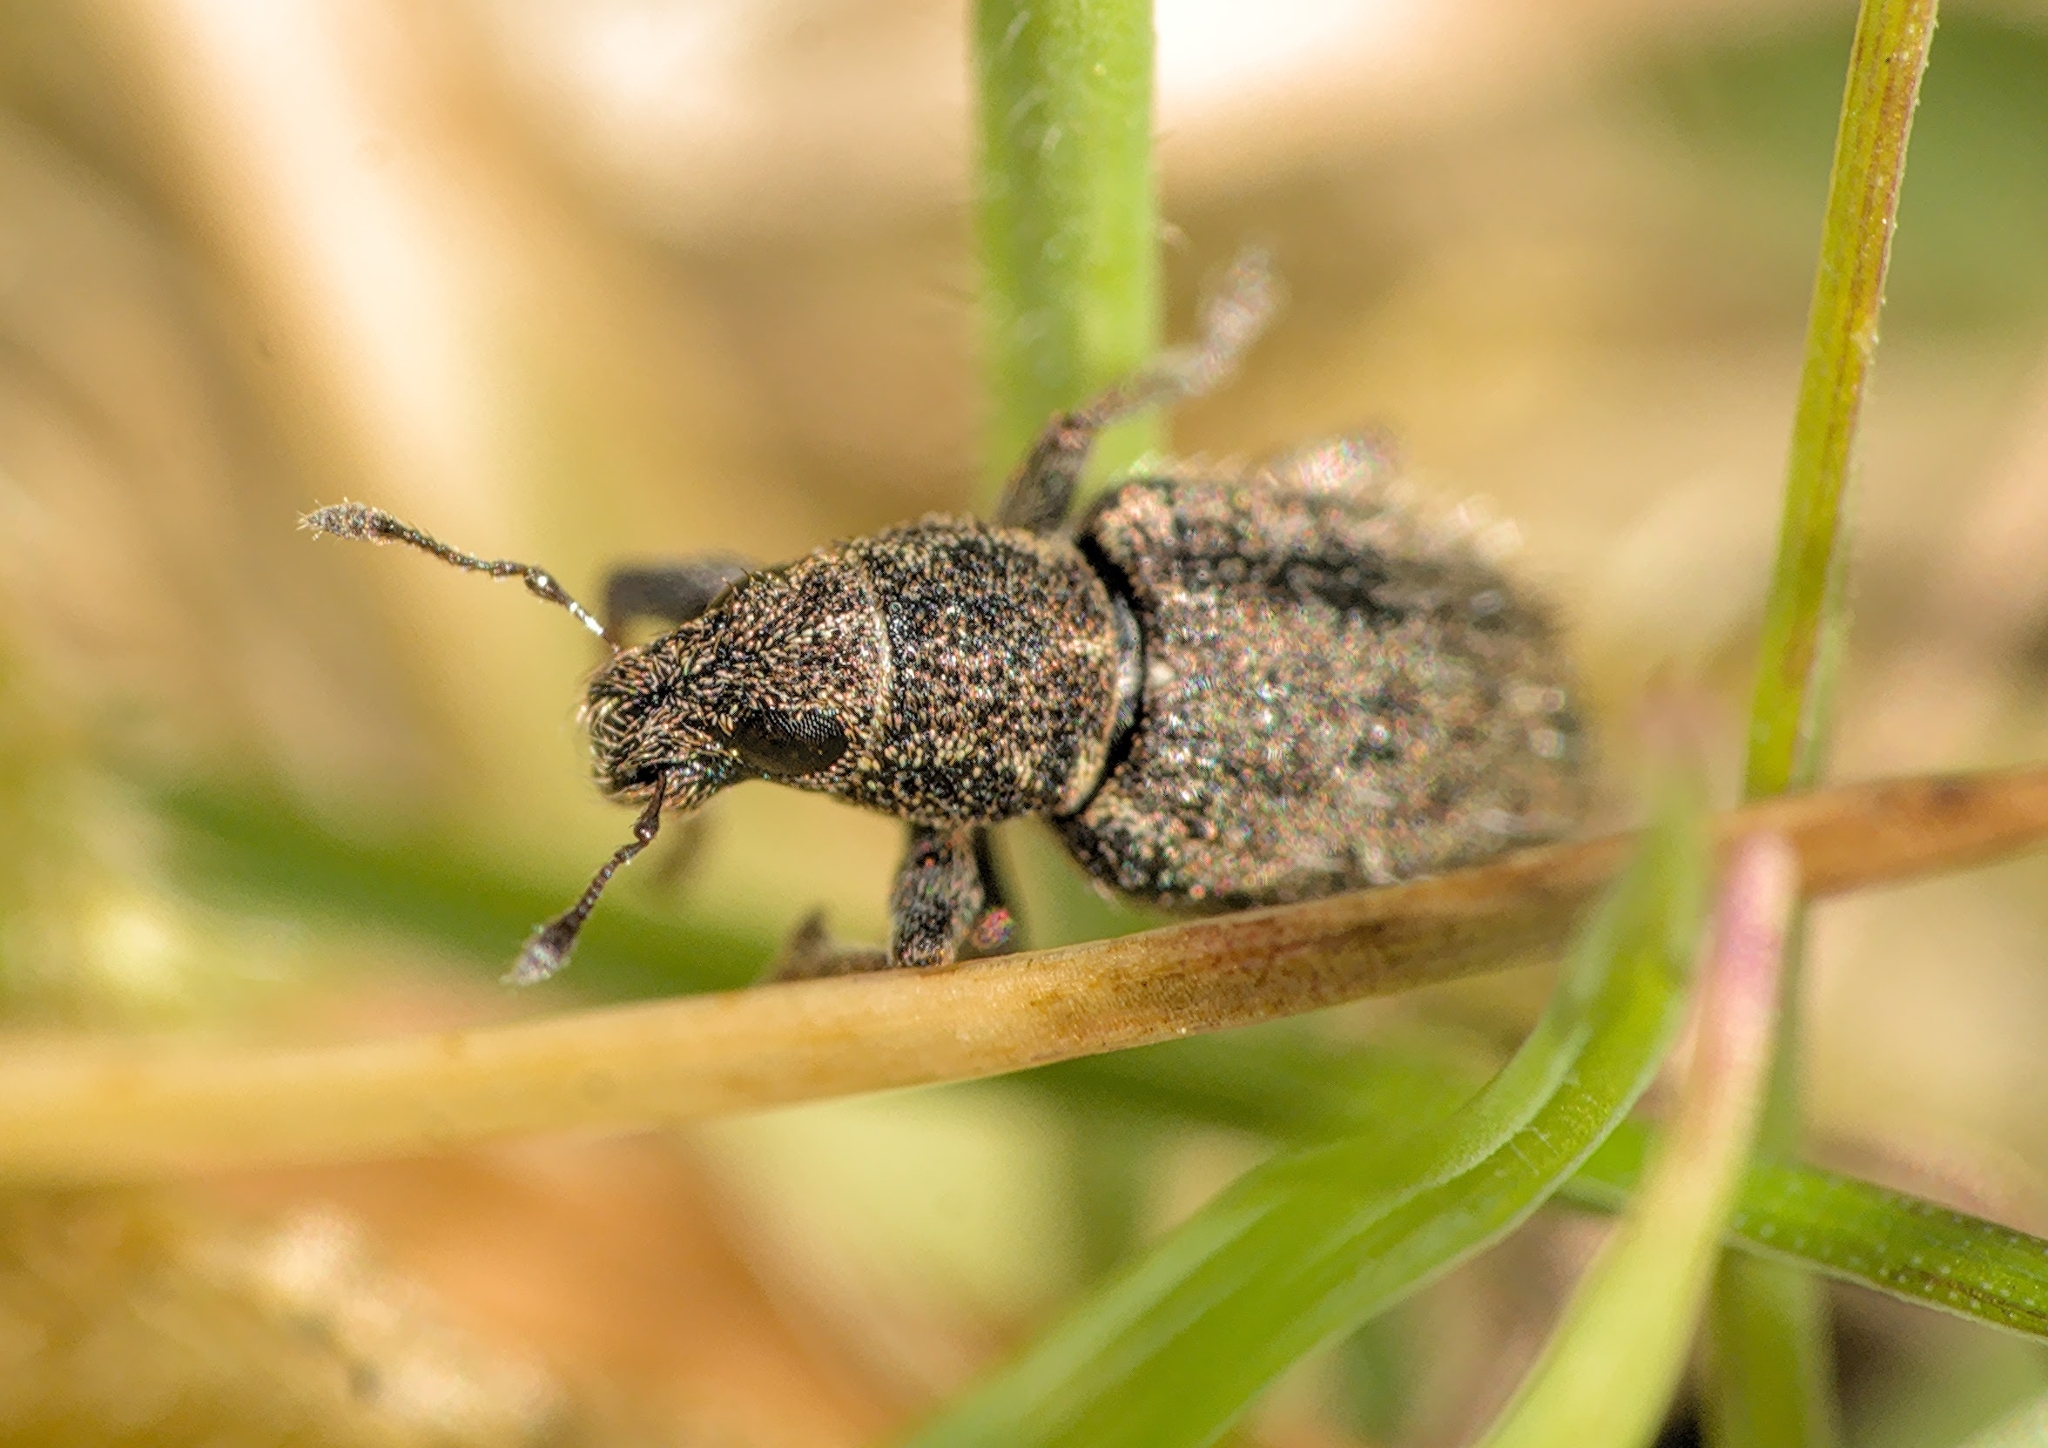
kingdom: Animalia
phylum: Arthropoda
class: Insecta
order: Coleoptera
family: Curculionidae
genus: Sitona
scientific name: Sitona hispidulus
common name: Clover weevil
